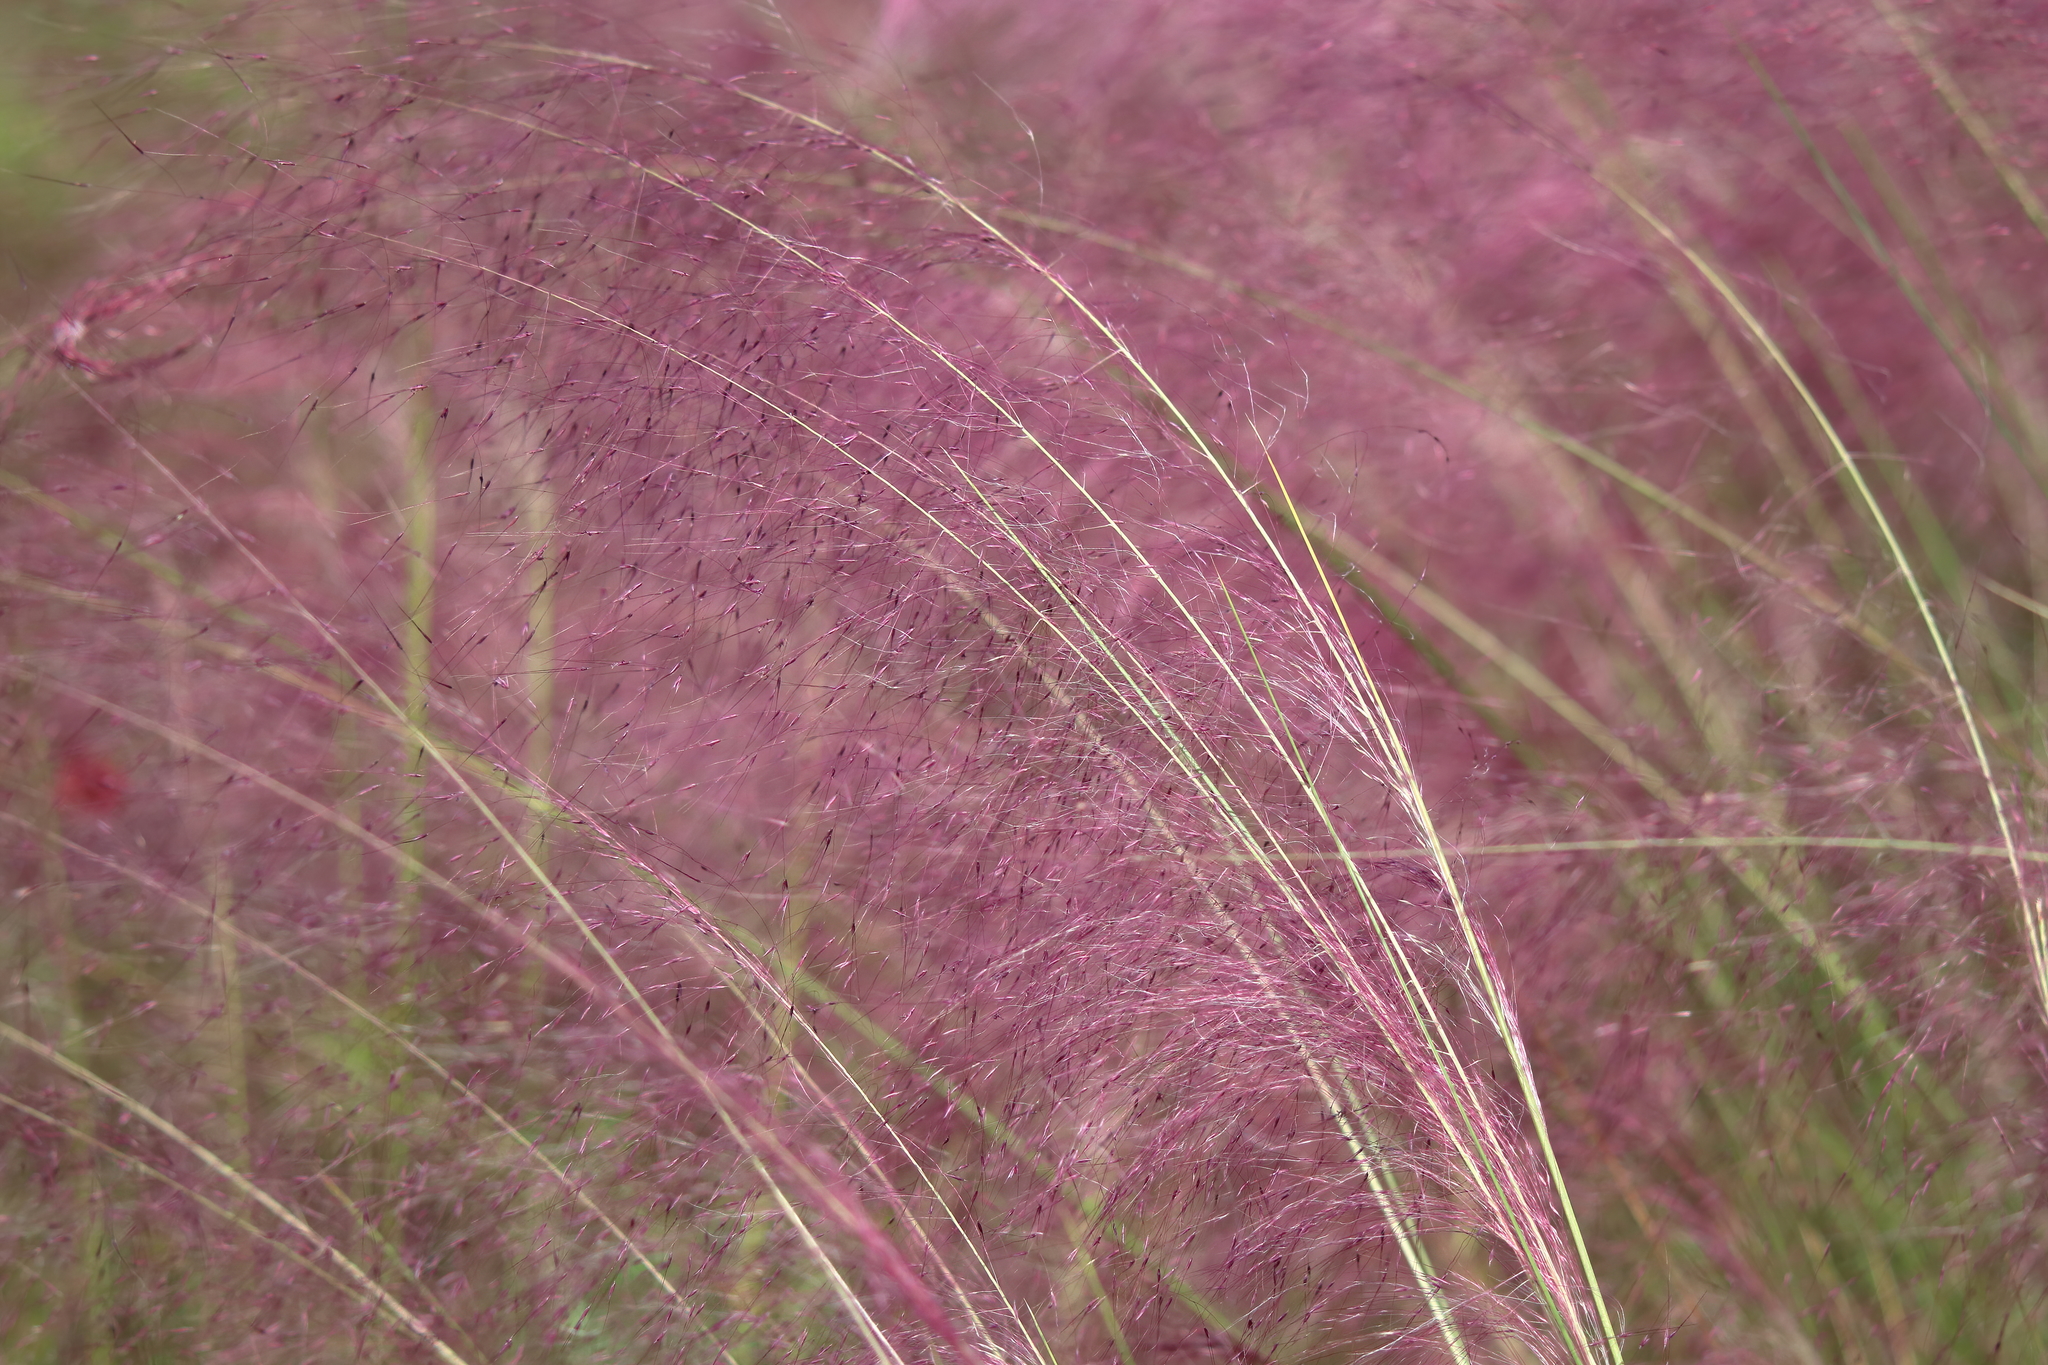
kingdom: Plantae
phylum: Tracheophyta
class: Liliopsida
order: Poales
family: Poaceae
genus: Muhlenbergia
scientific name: Muhlenbergia capillaris
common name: Purple grass
